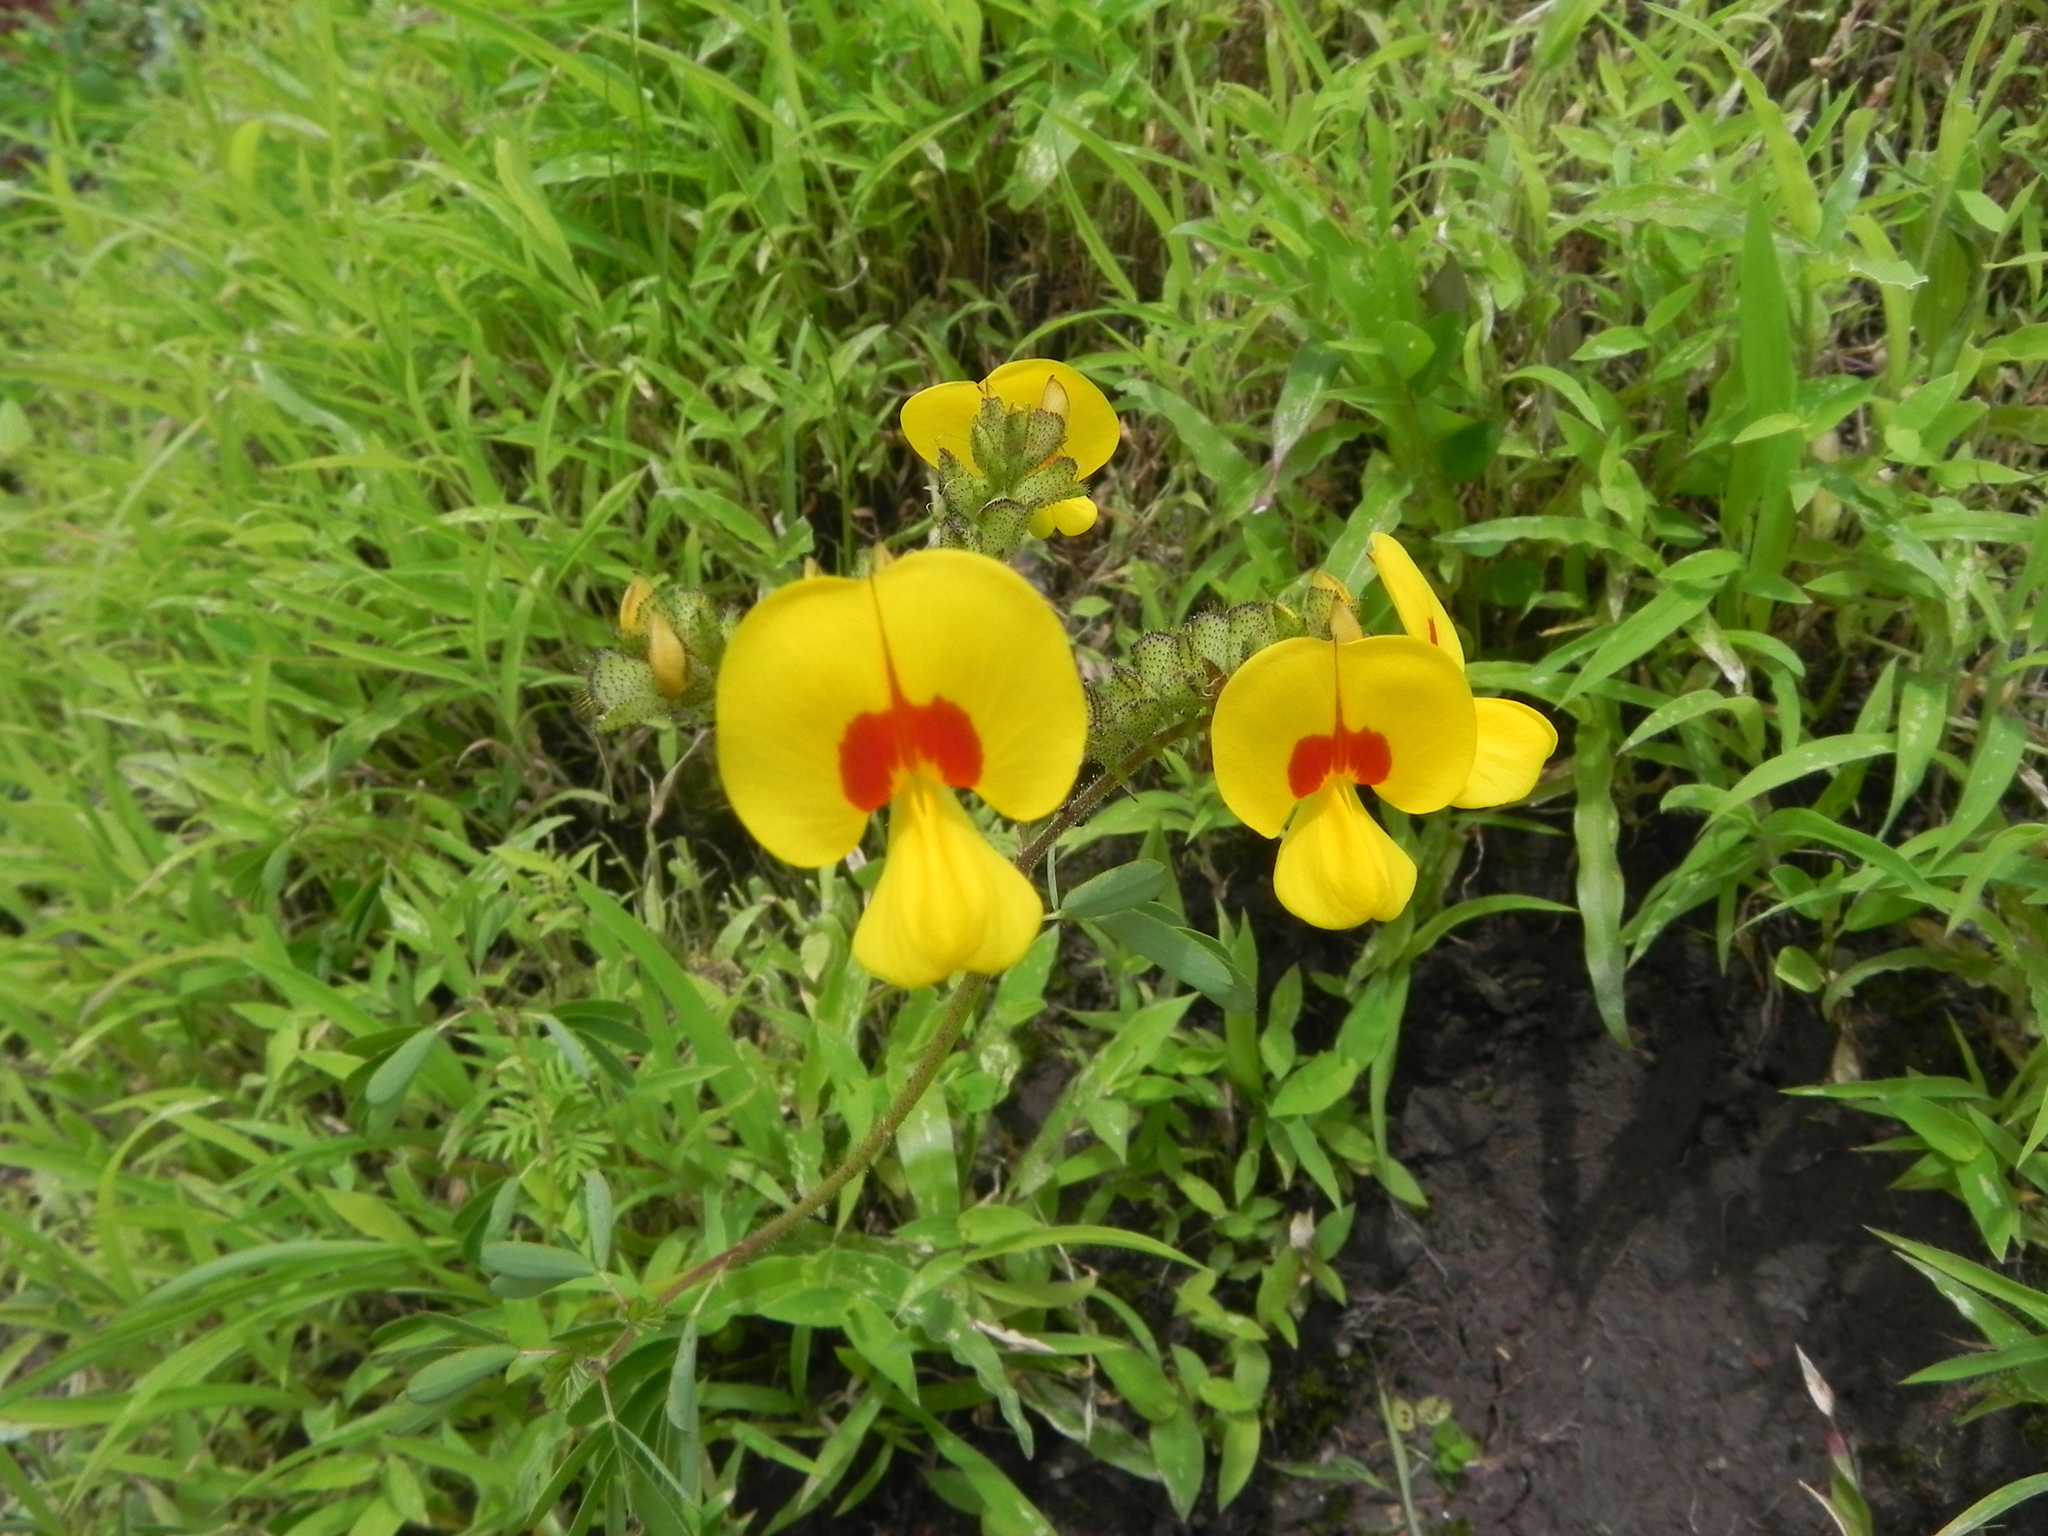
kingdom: Plantae
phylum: Tracheophyta
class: Magnoliopsida
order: Fabales
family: Fabaceae
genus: Smithia
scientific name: Smithia setulosa
